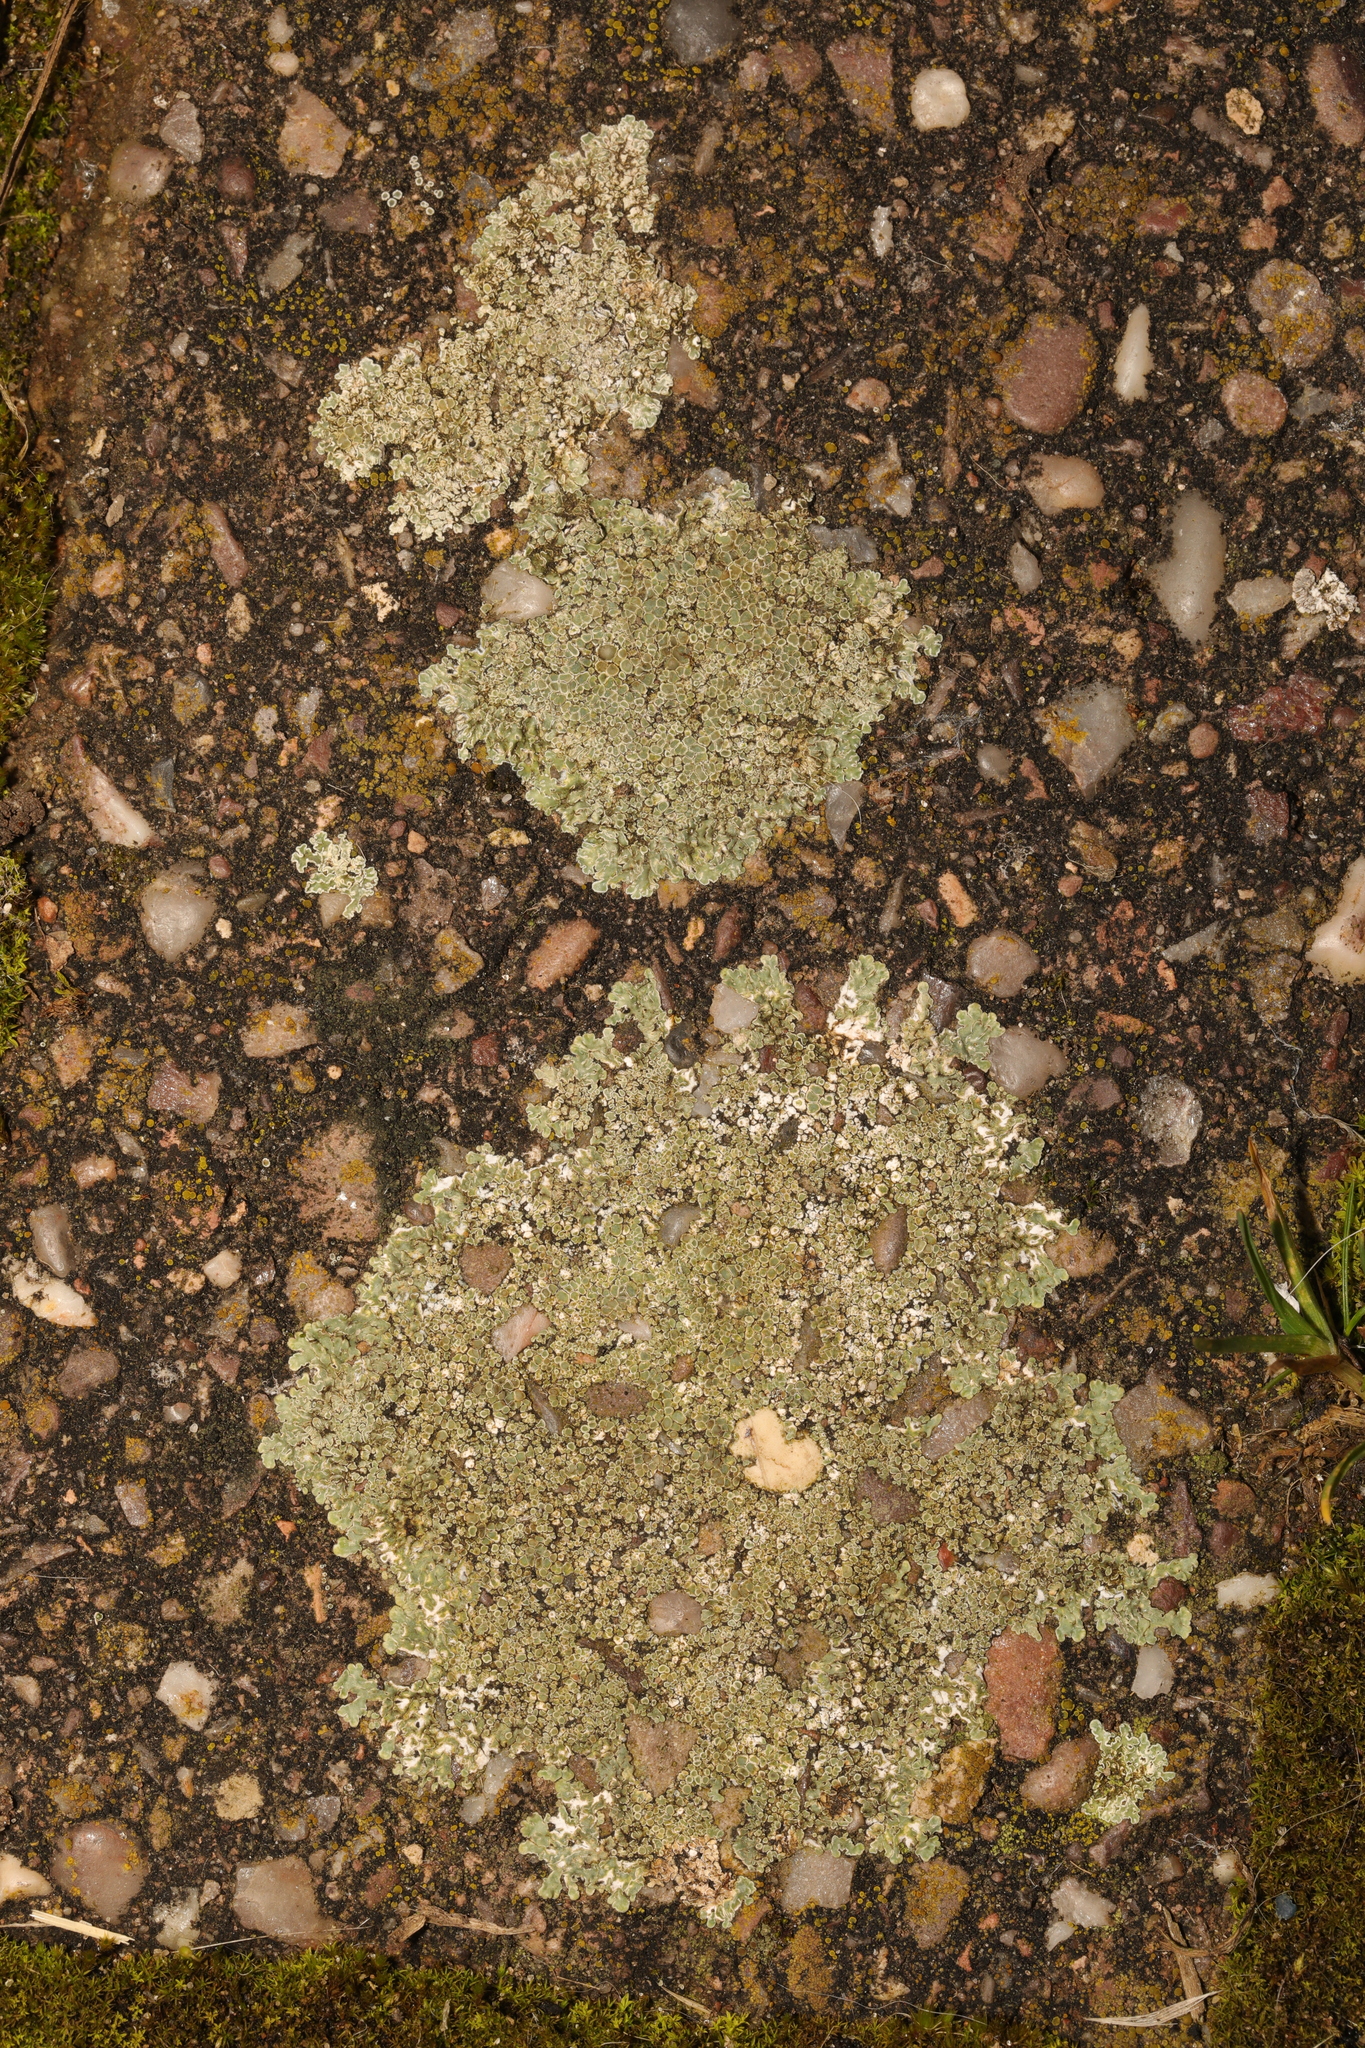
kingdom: Fungi
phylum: Ascomycota
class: Lecanoromycetes
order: Lecanorales
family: Lecanoraceae
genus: Protoparmeliopsis
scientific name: Protoparmeliopsis muralis
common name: Stonewall rim lichen
